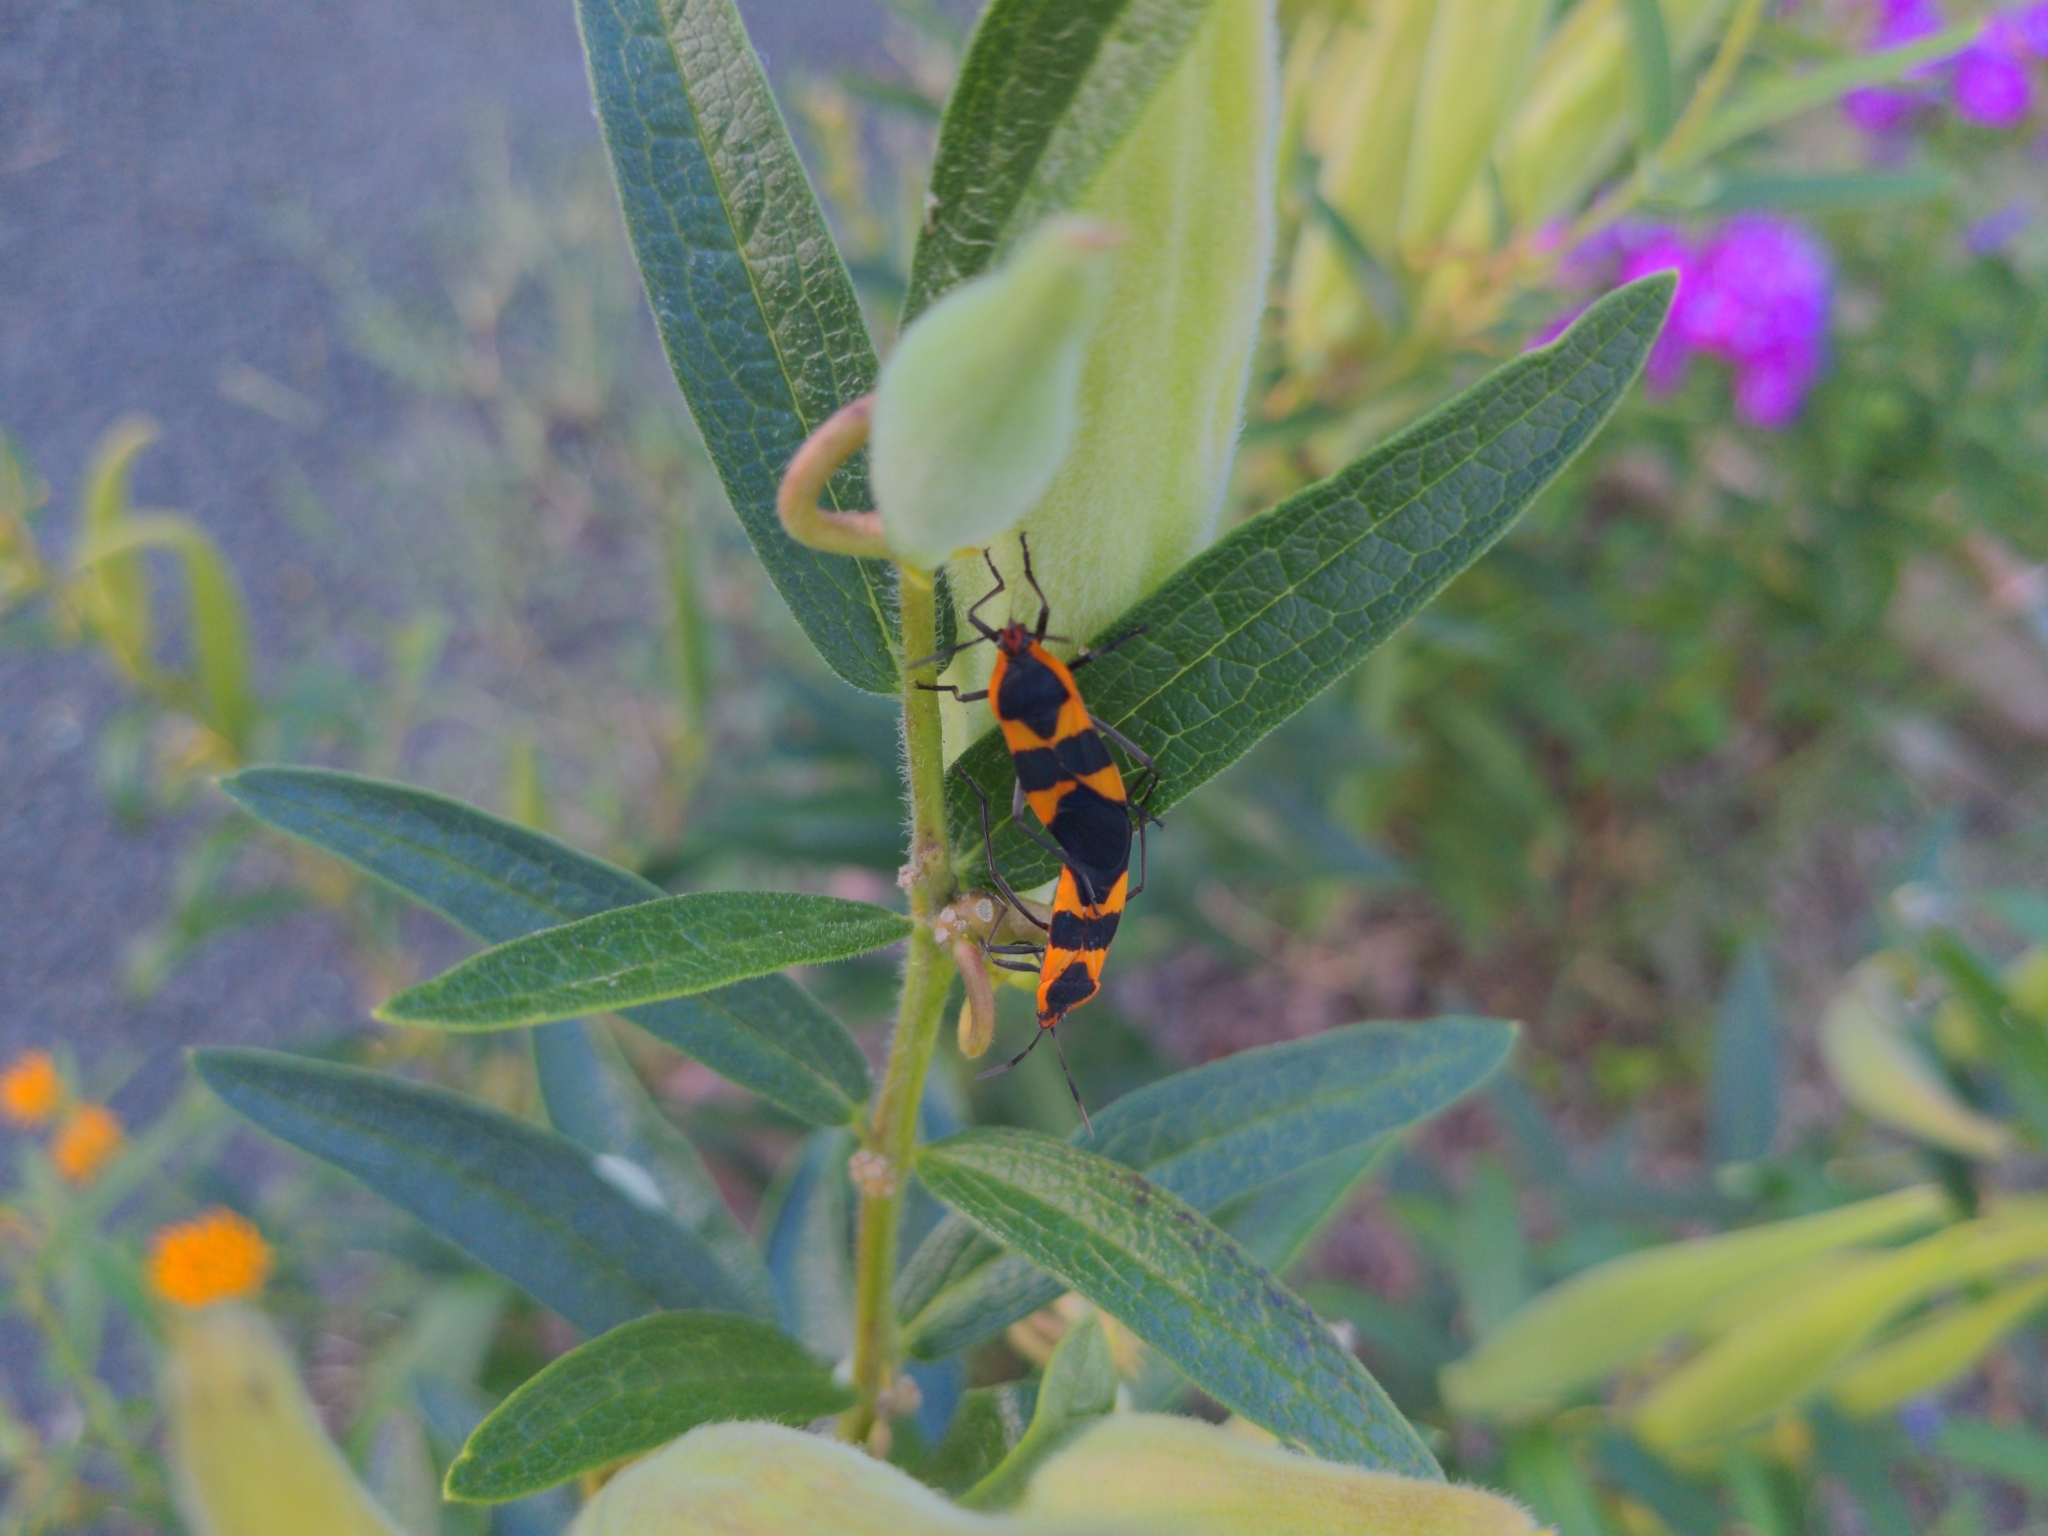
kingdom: Animalia
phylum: Arthropoda
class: Insecta
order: Hemiptera
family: Lygaeidae
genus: Oncopeltus
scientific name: Oncopeltus fasciatus
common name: Large milkweed bug
